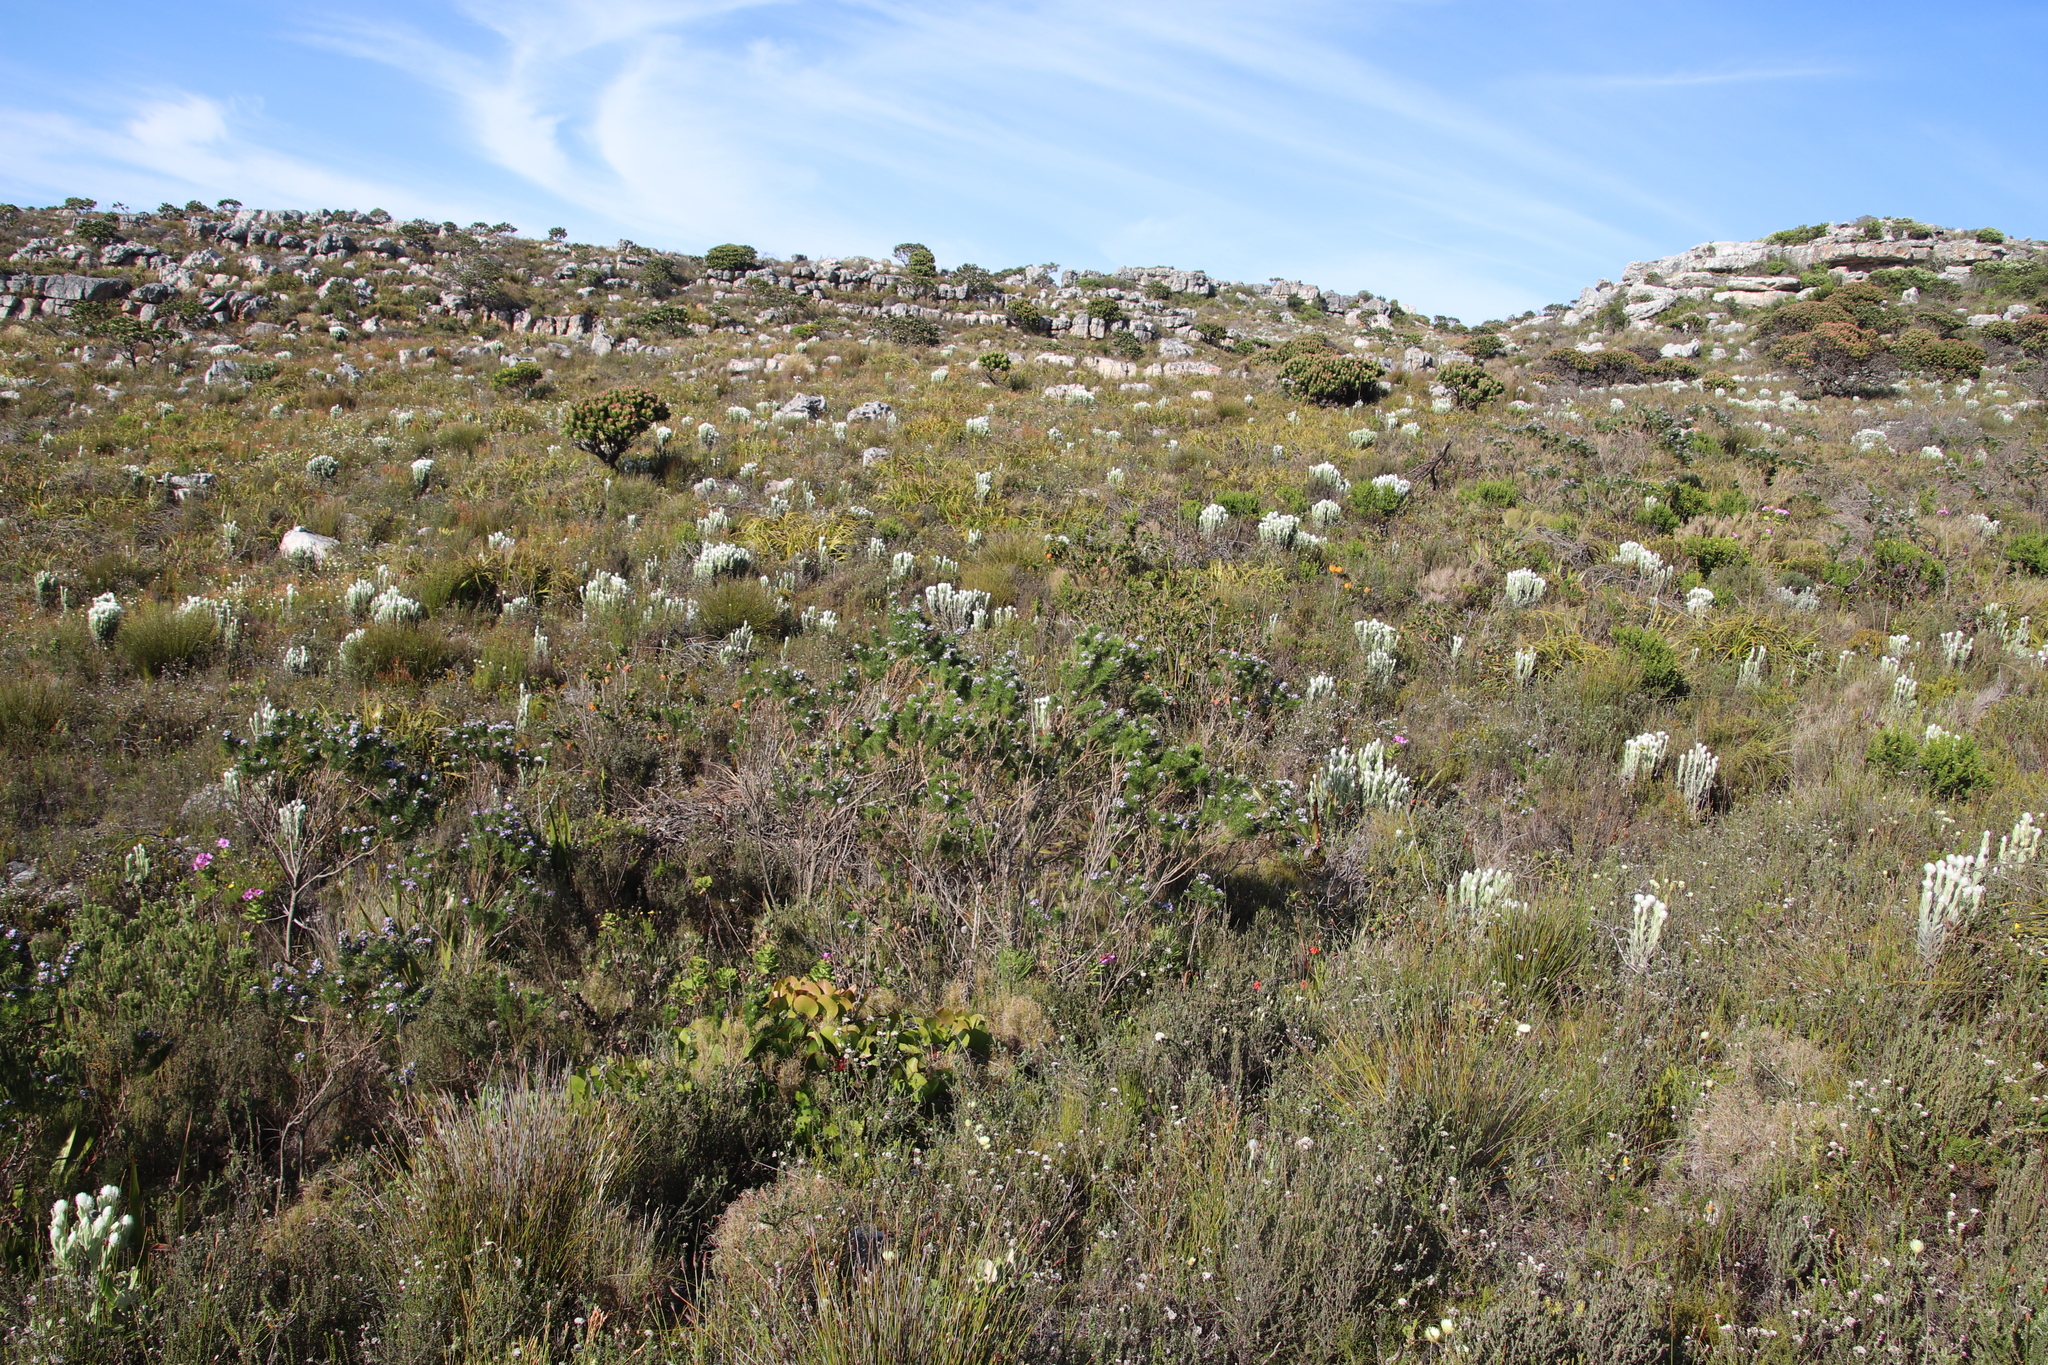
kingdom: Plantae
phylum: Tracheophyta
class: Magnoliopsida
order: Fabales
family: Fabaceae
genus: Liparia
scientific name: Liparia splendens
